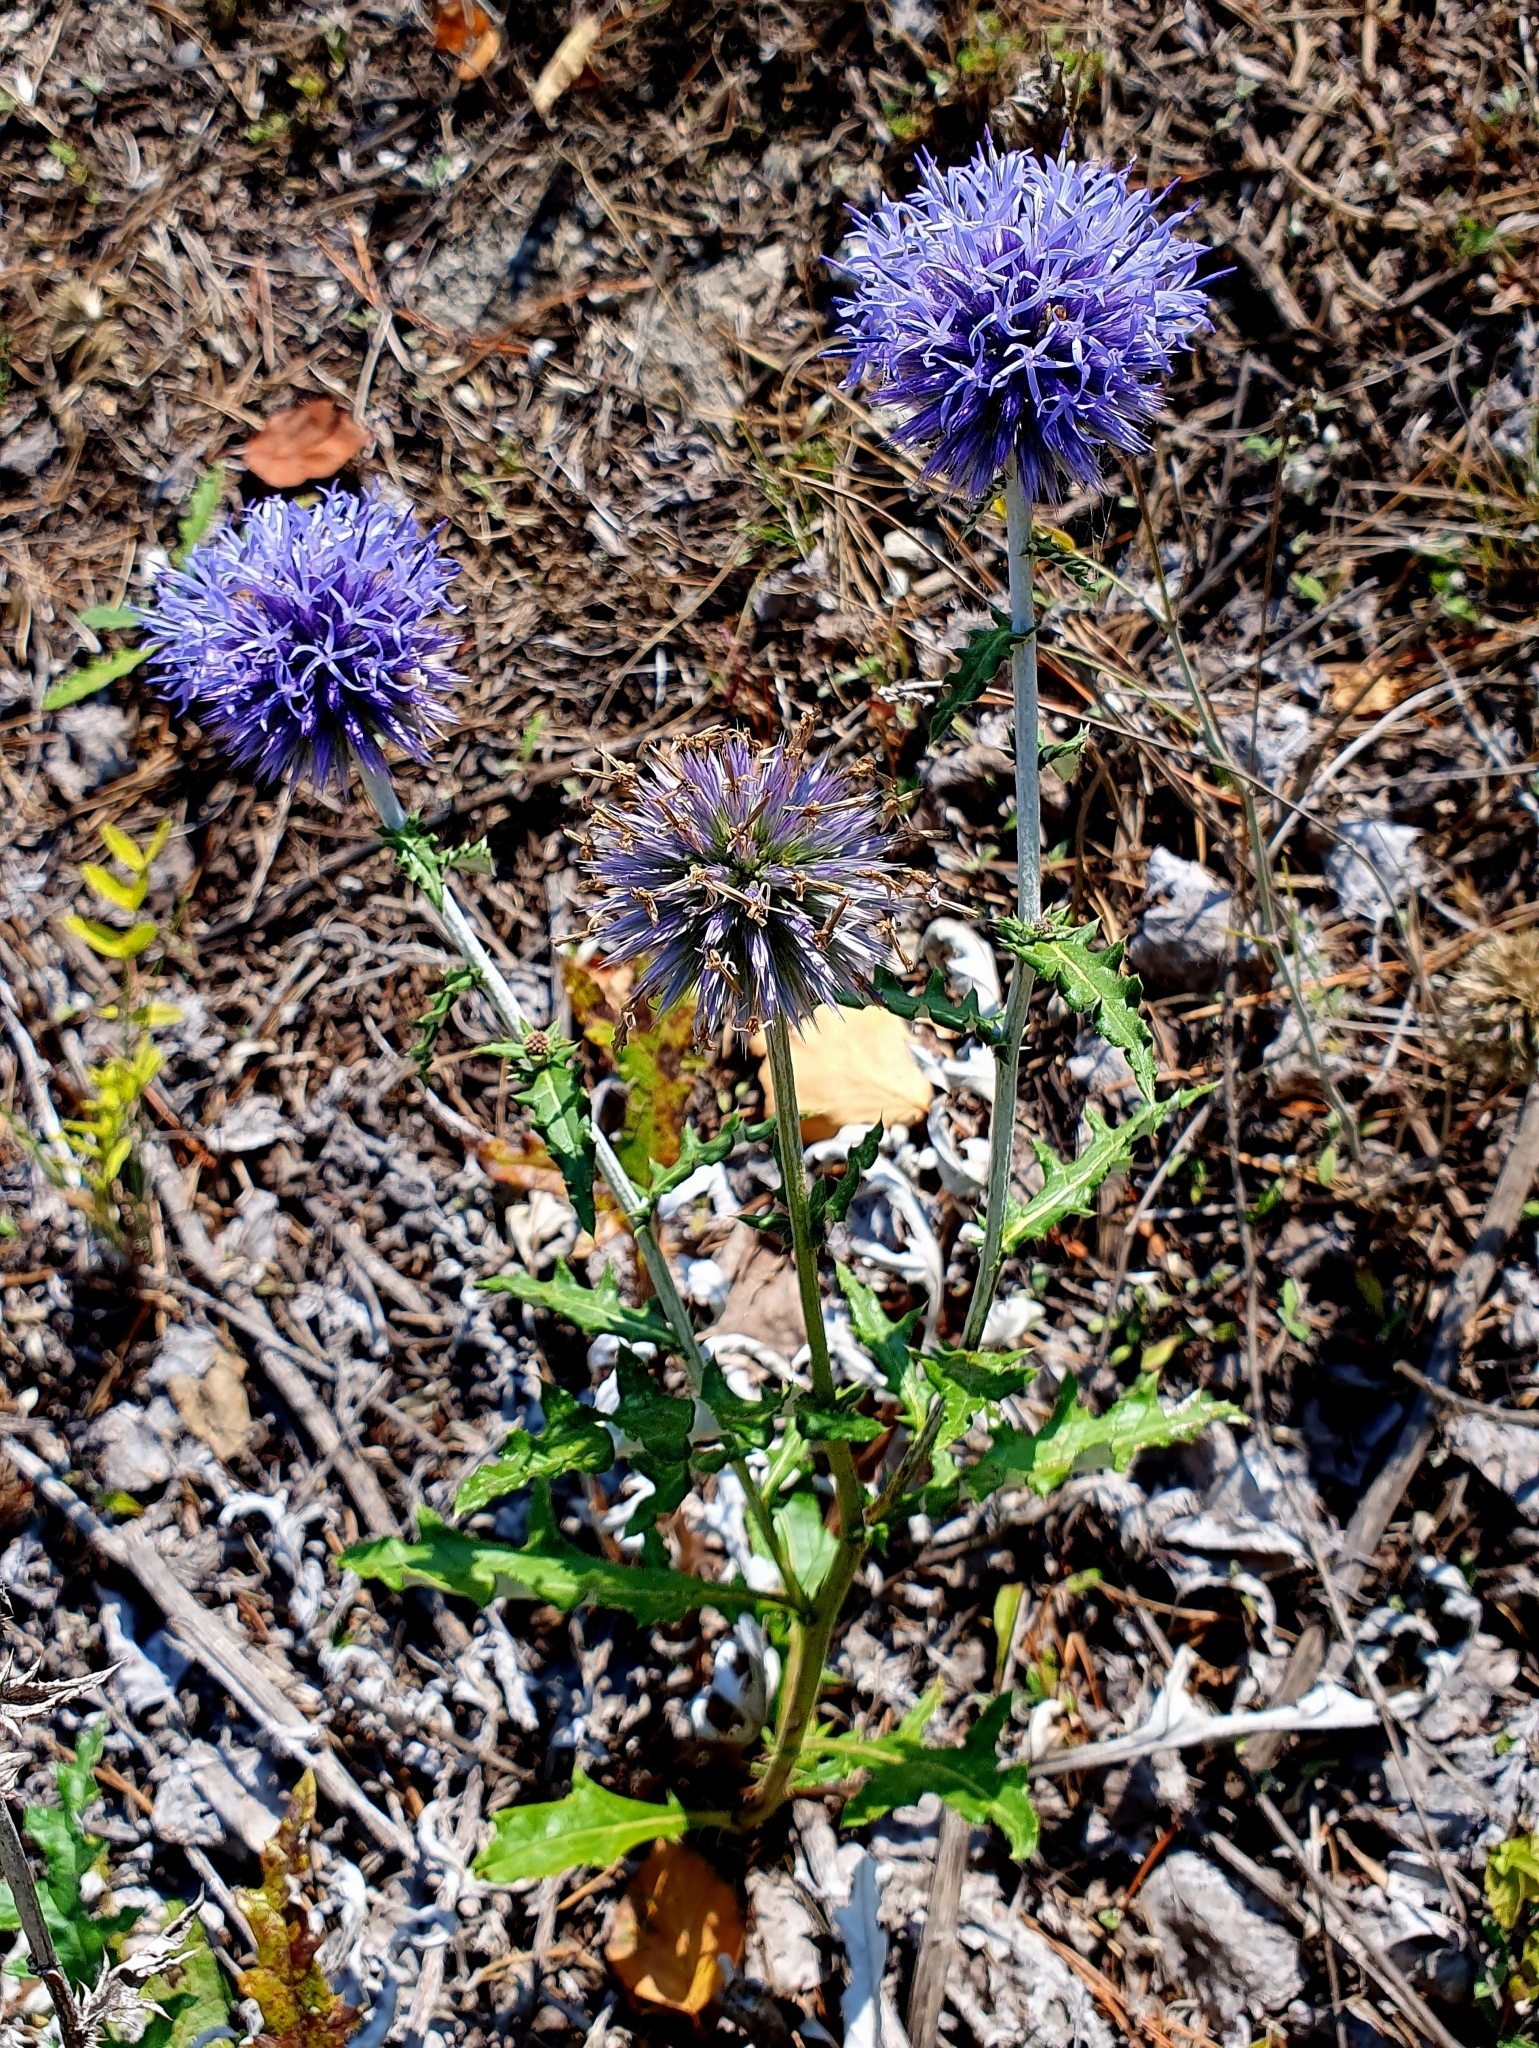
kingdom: Plantae
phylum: Tracheophyta
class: Magnoliopsida
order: Asterales
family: Asteraceae
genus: Echinops
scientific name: Echinops saksonovii
